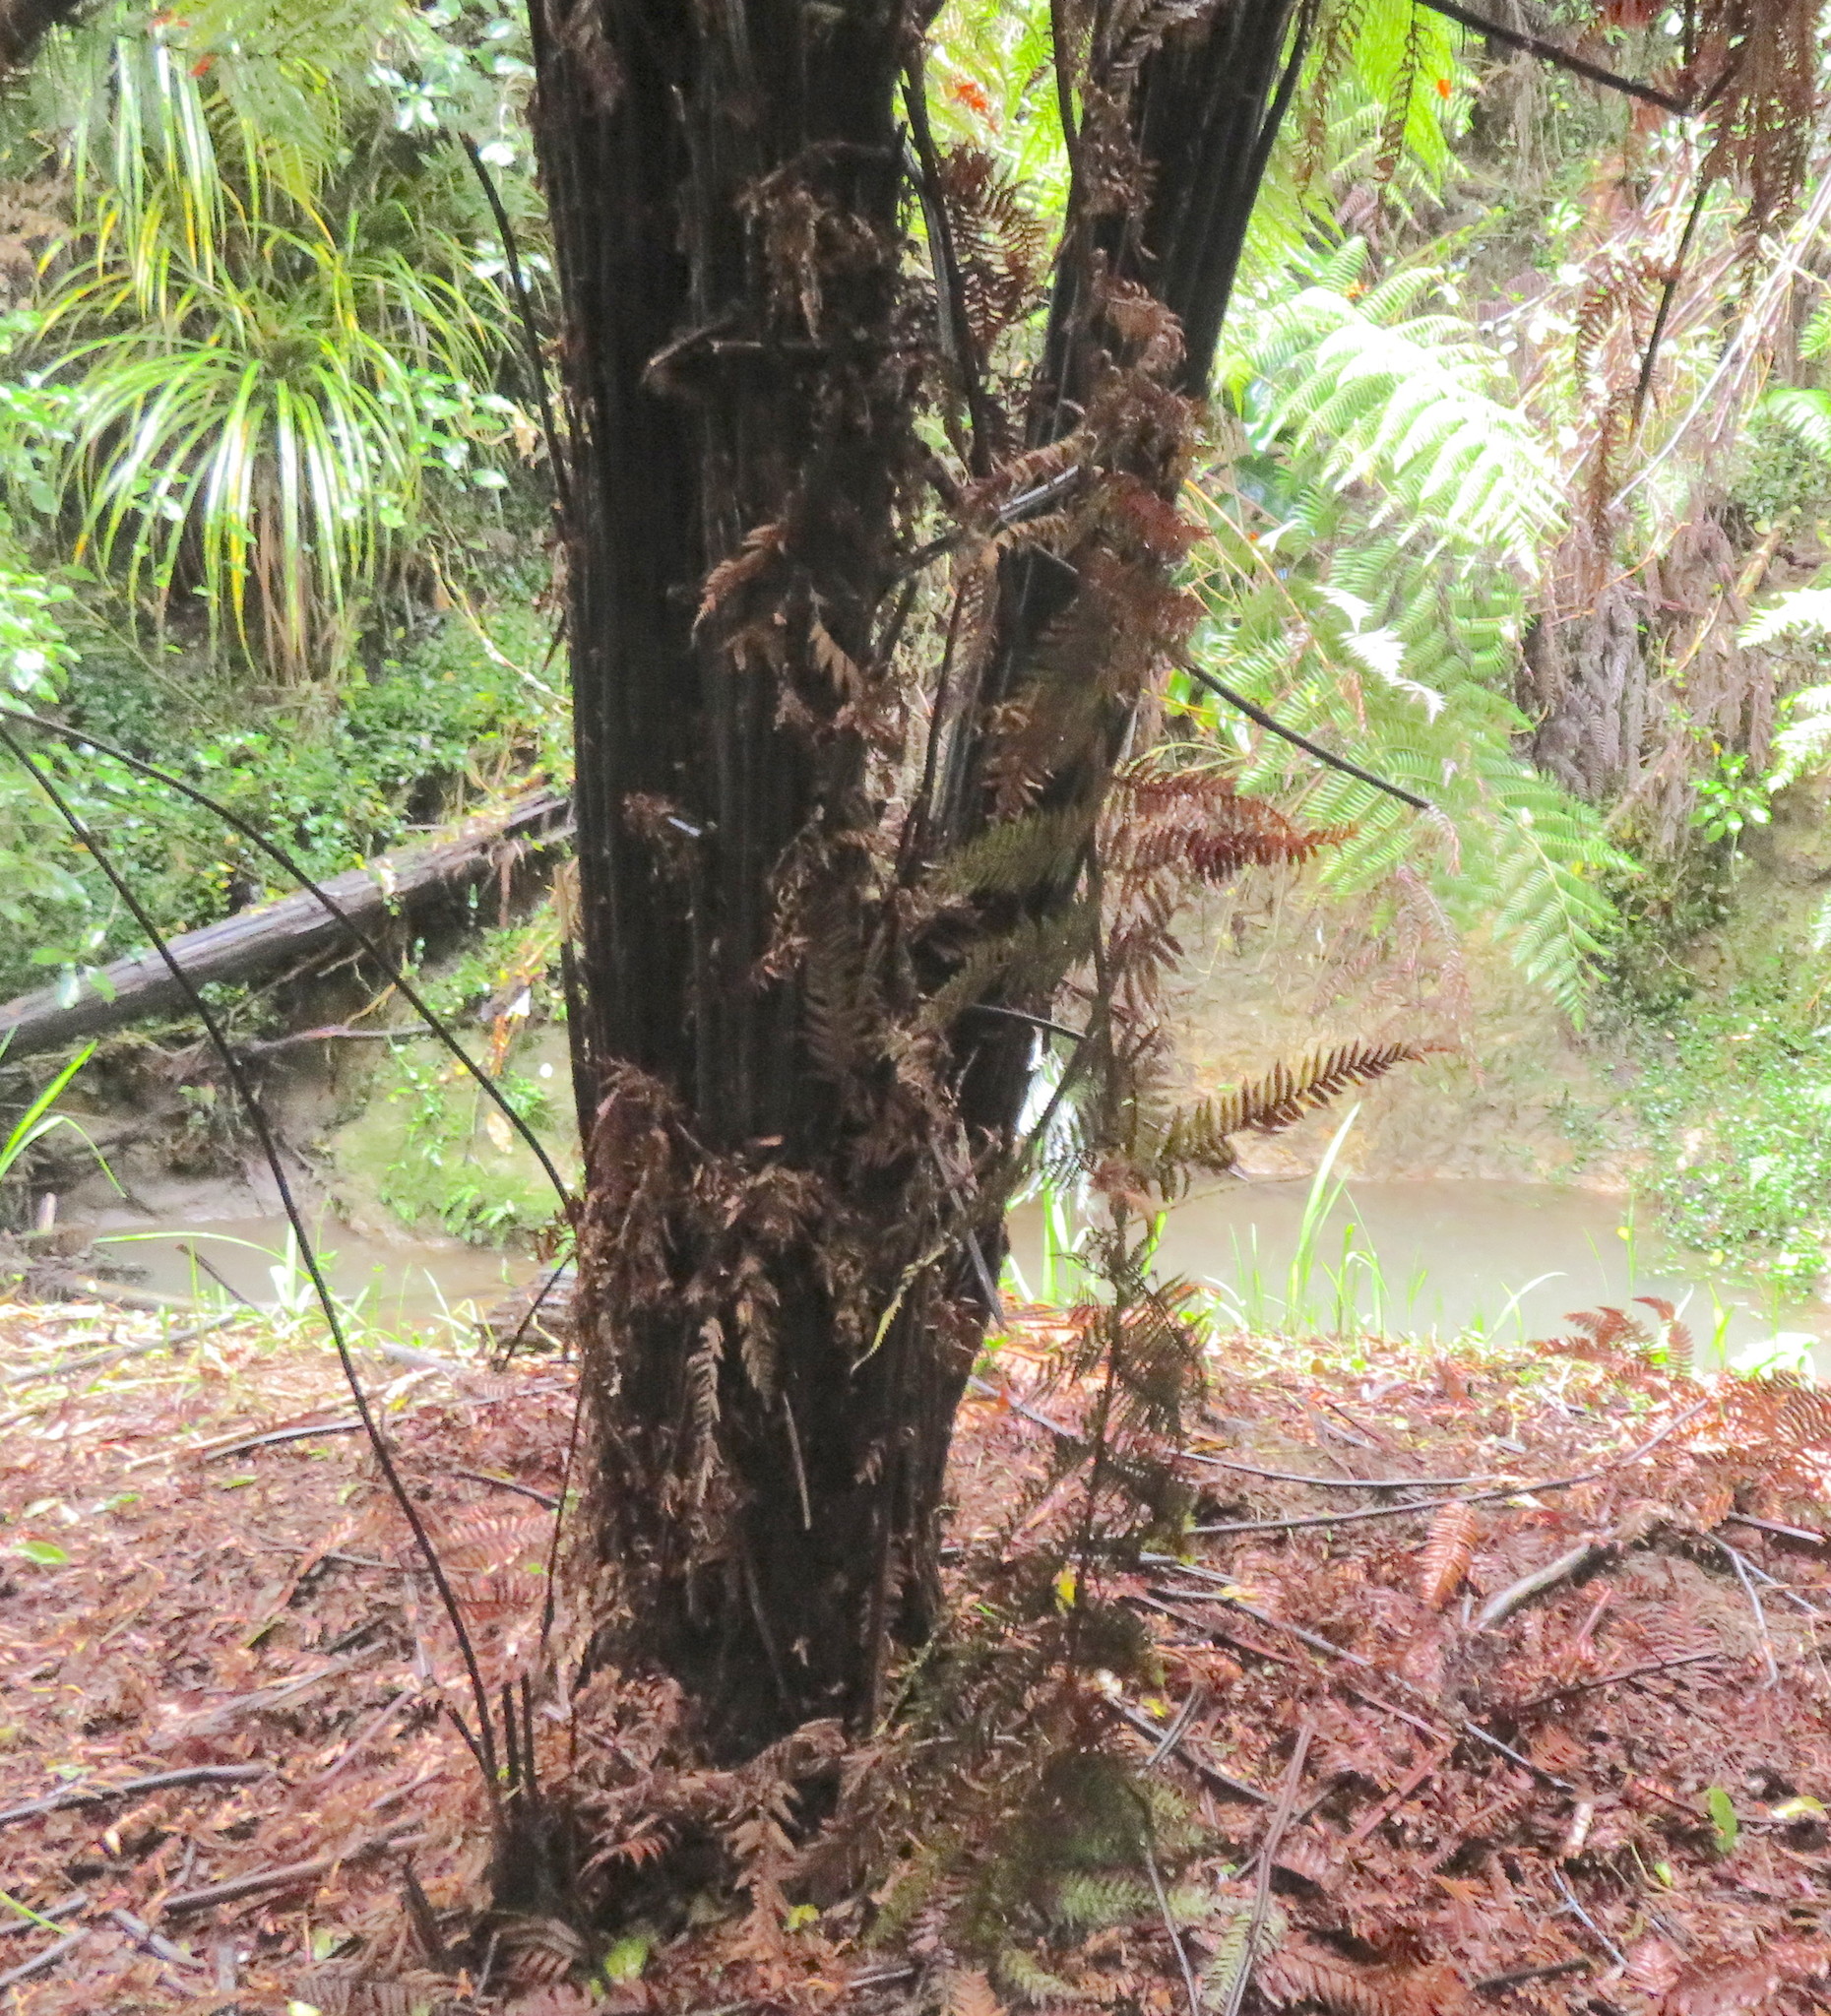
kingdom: Plantae
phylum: Tracheophyta
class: Polypodiopsida
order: Cyatheales
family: Dicksoniaceae
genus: Dicksonia
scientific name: Dicksonia squarrosa
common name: Hard treefern
